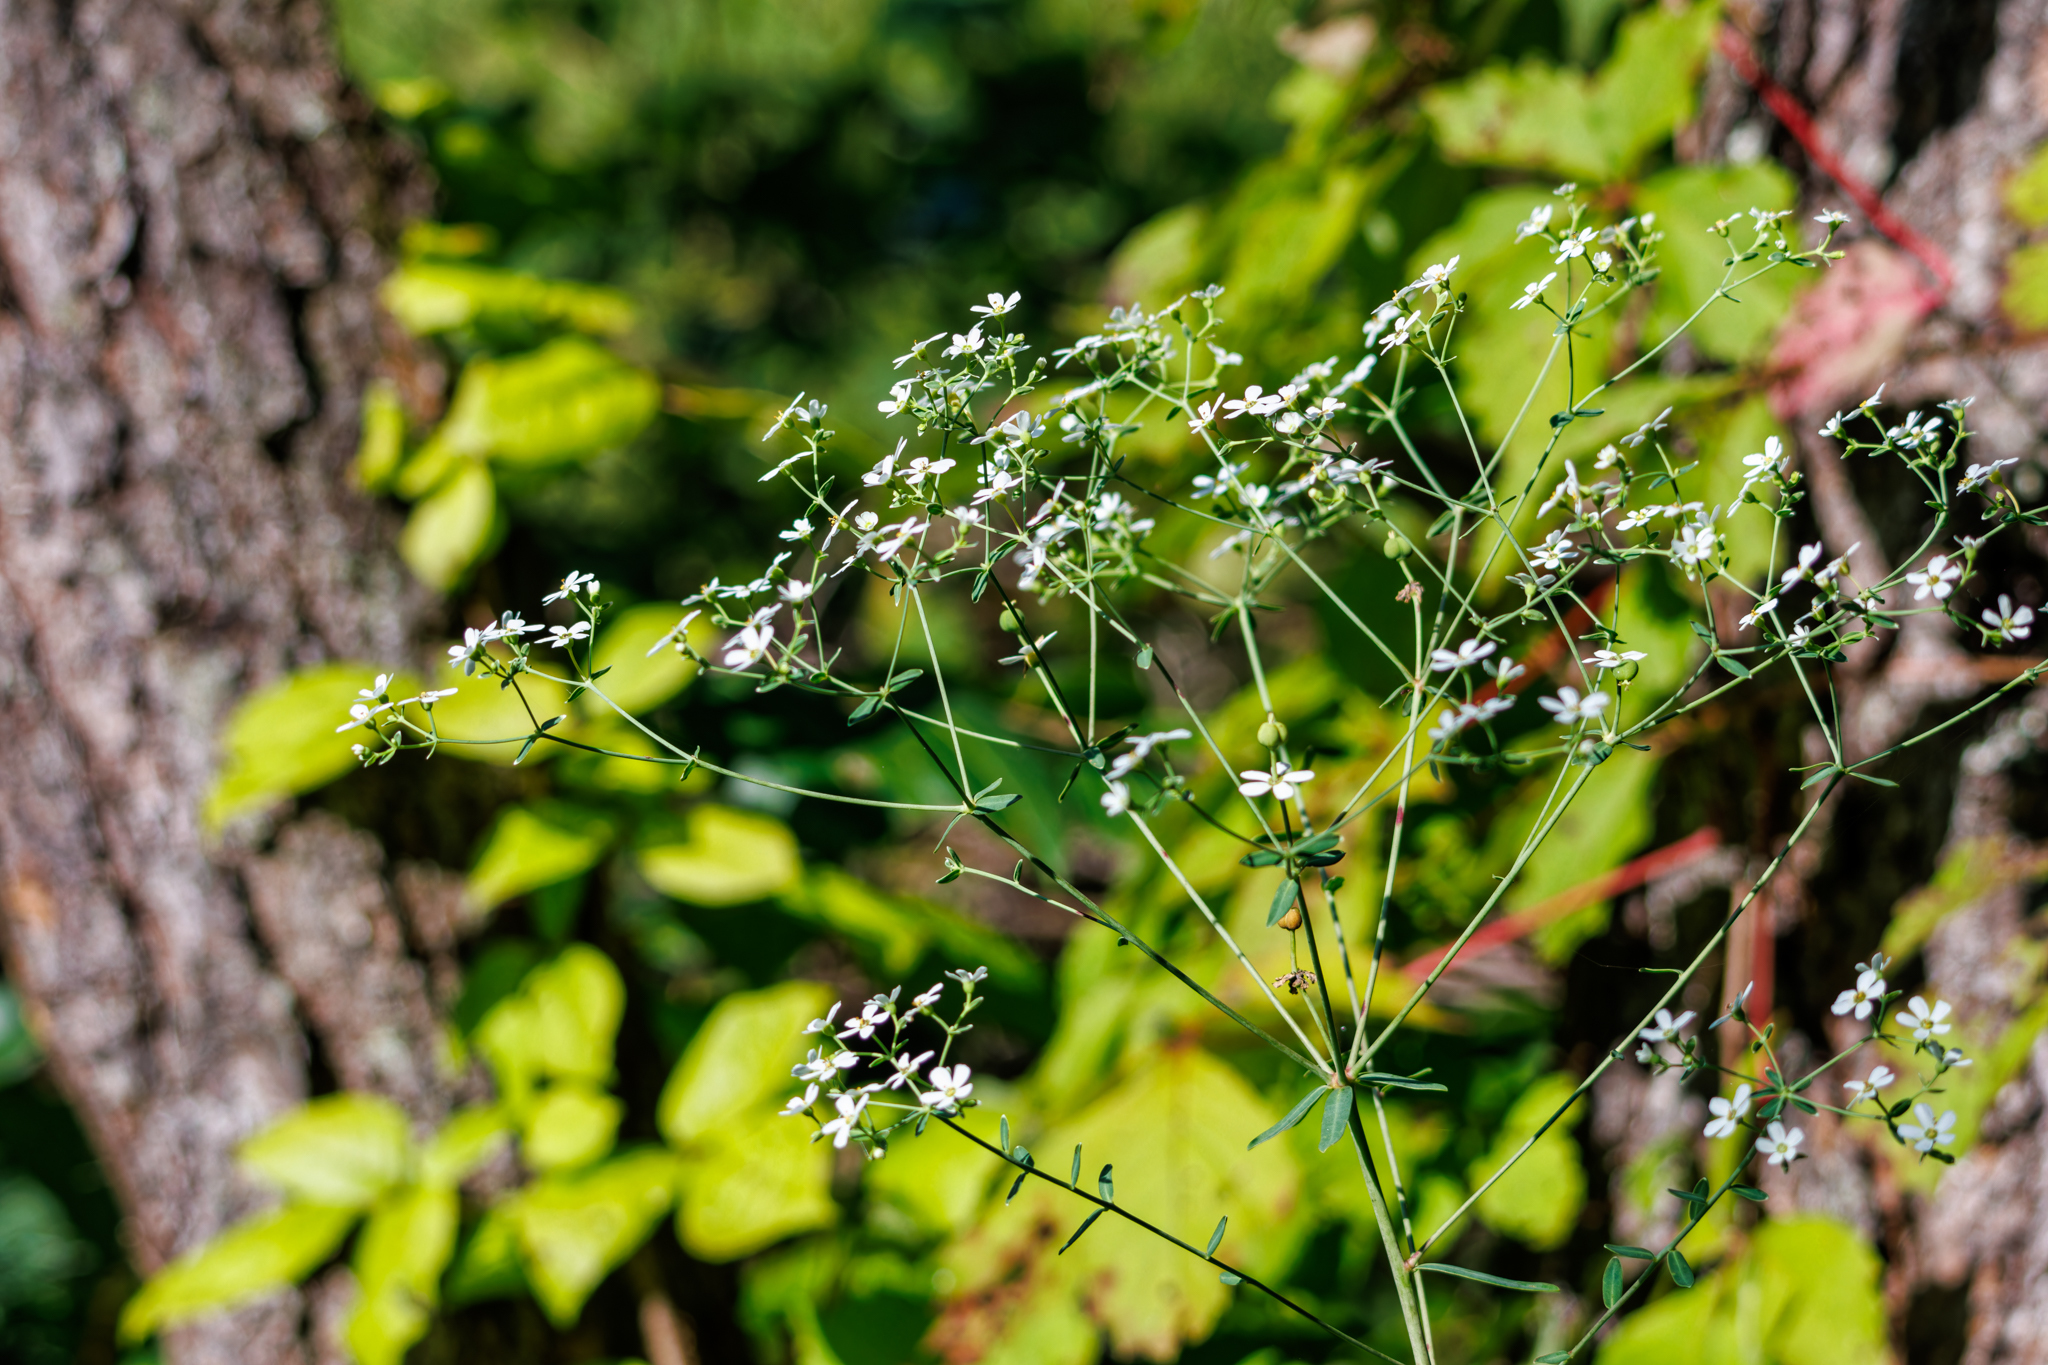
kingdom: Plantae
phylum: Tracheophyta
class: Magnoliopsida
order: Malpighiales
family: Euphorbiaceae
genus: Euphorbia
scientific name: Euphorbia corollata
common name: Flowering spurge
